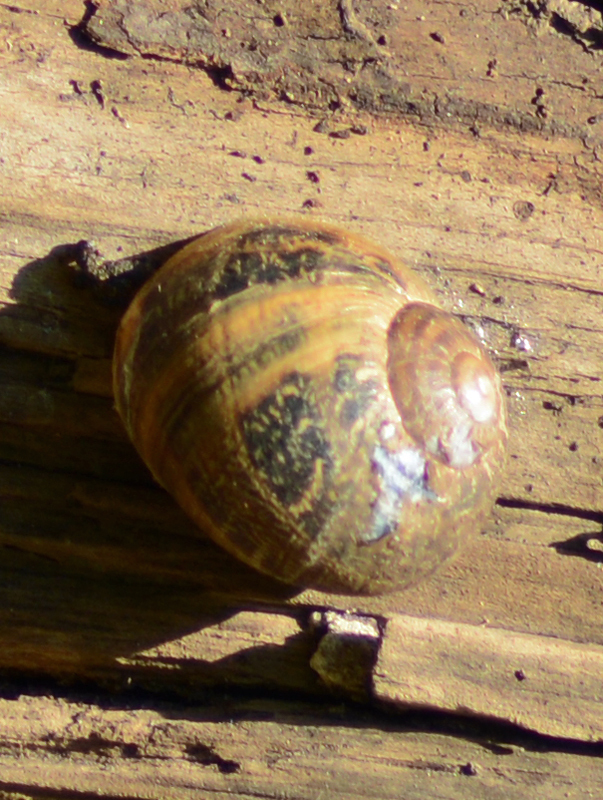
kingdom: Animalia
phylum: Mollusca
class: Gastropoda
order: Stylommatophora
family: Helicidae
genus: Cornu
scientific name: Cornu aspersum
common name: Brown garden snail
